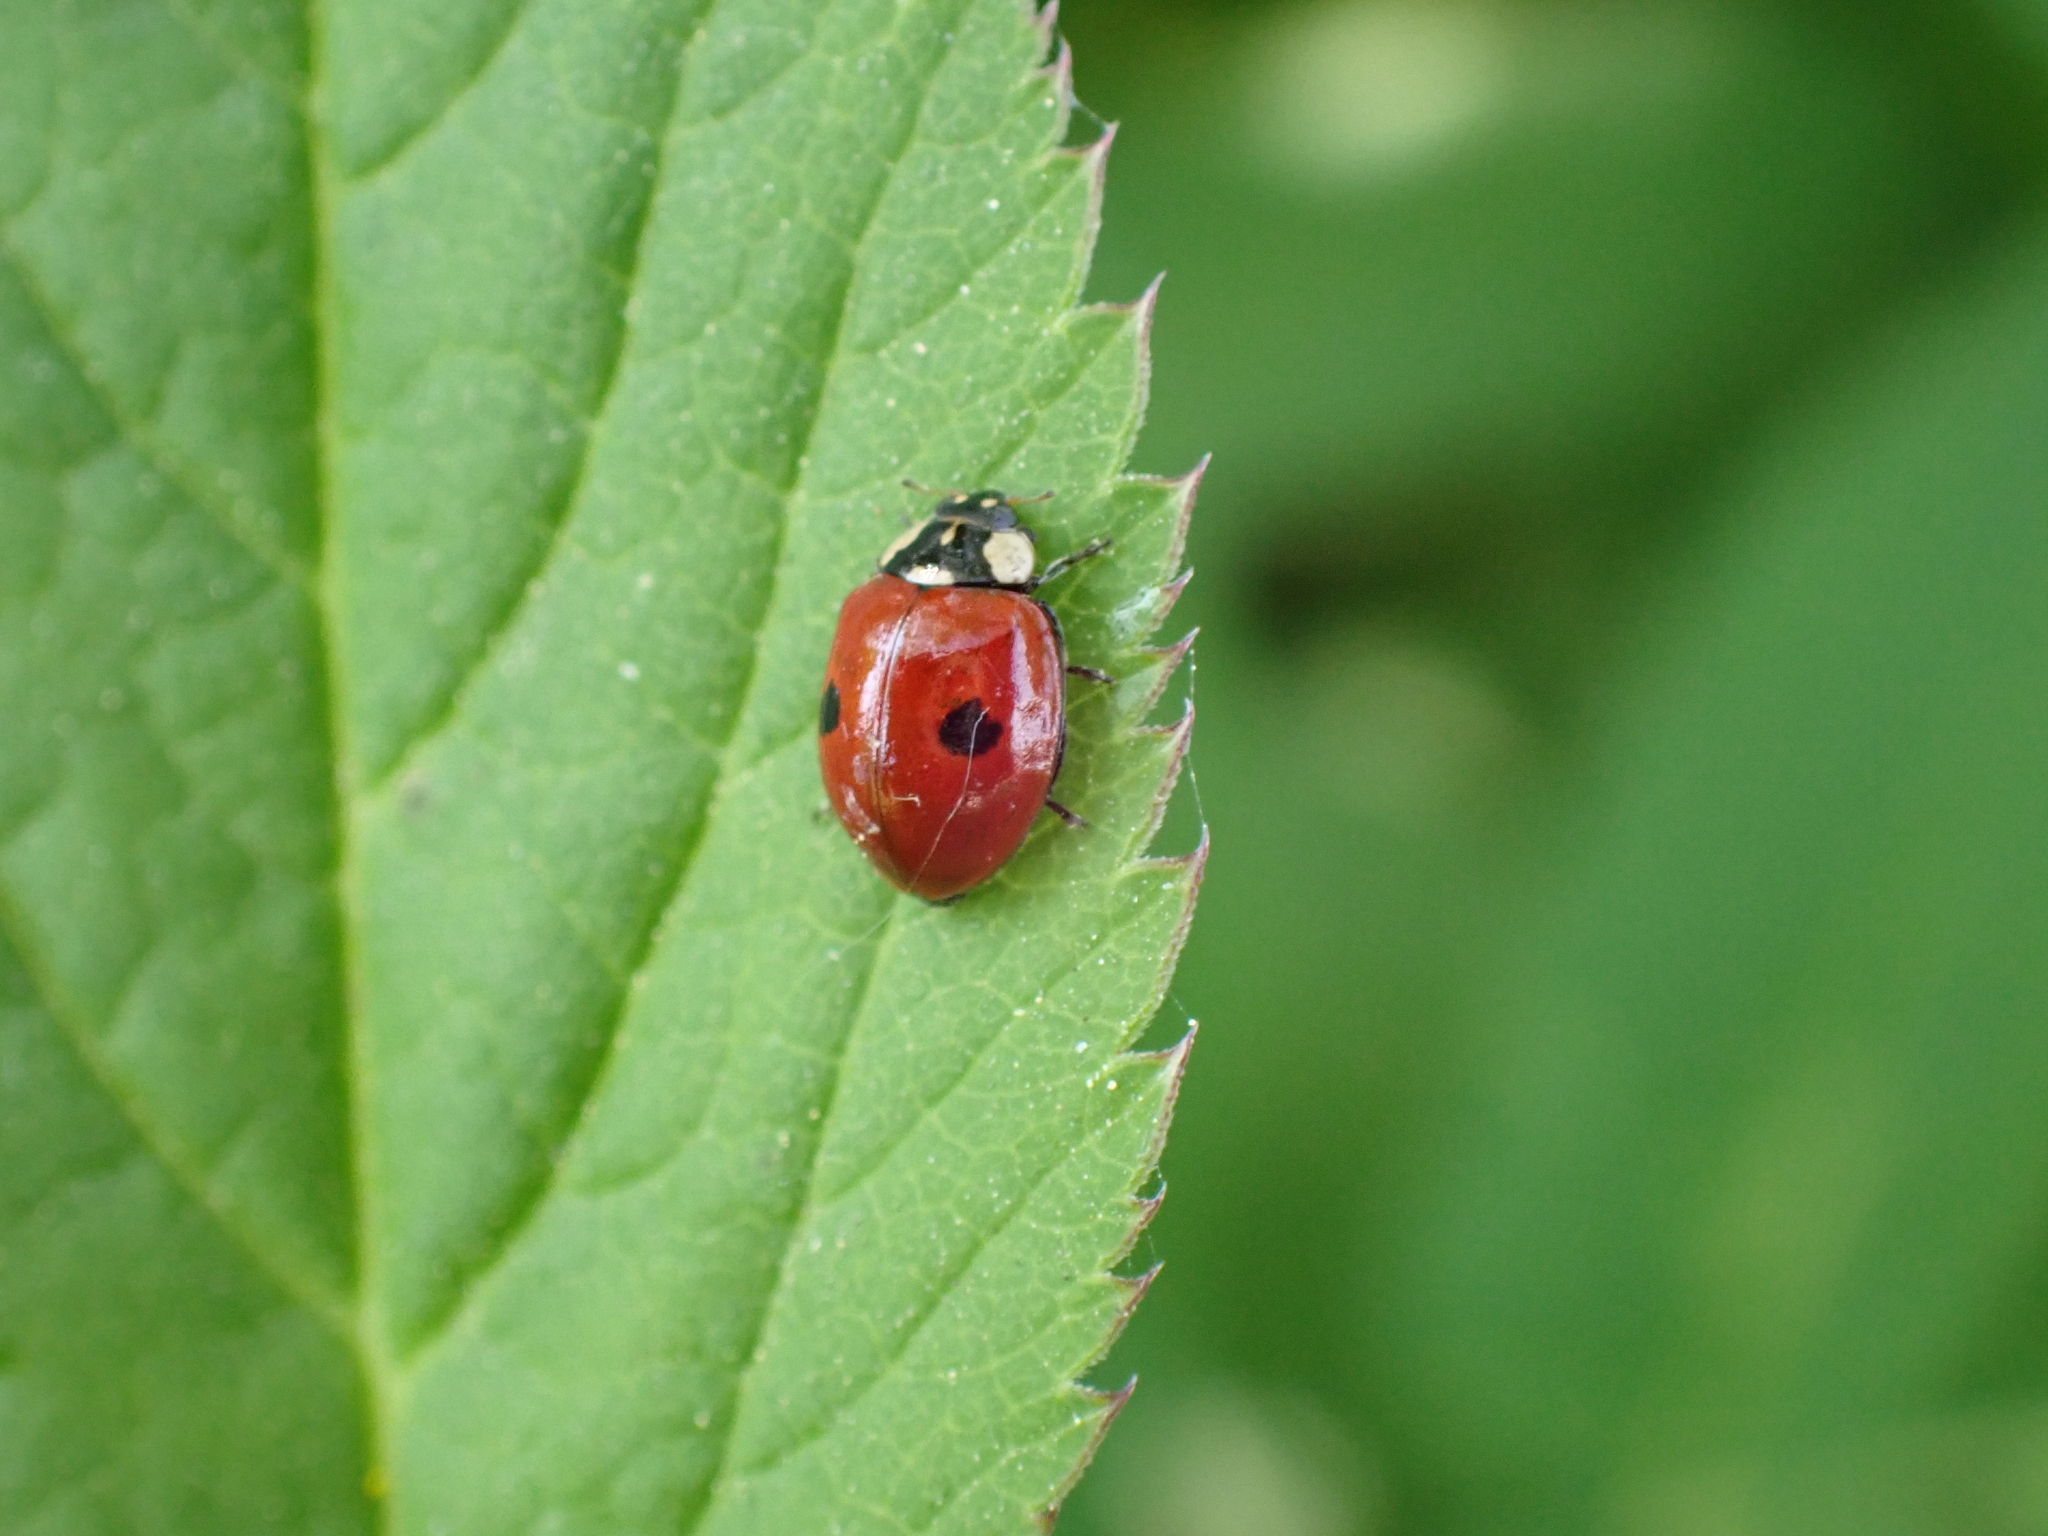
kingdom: Animalia
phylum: Arthropoda
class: Insecta
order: Coleoptera
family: Coccinellidae
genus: Adalia
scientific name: Adalia bipunctata
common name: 2-spot ladybird
